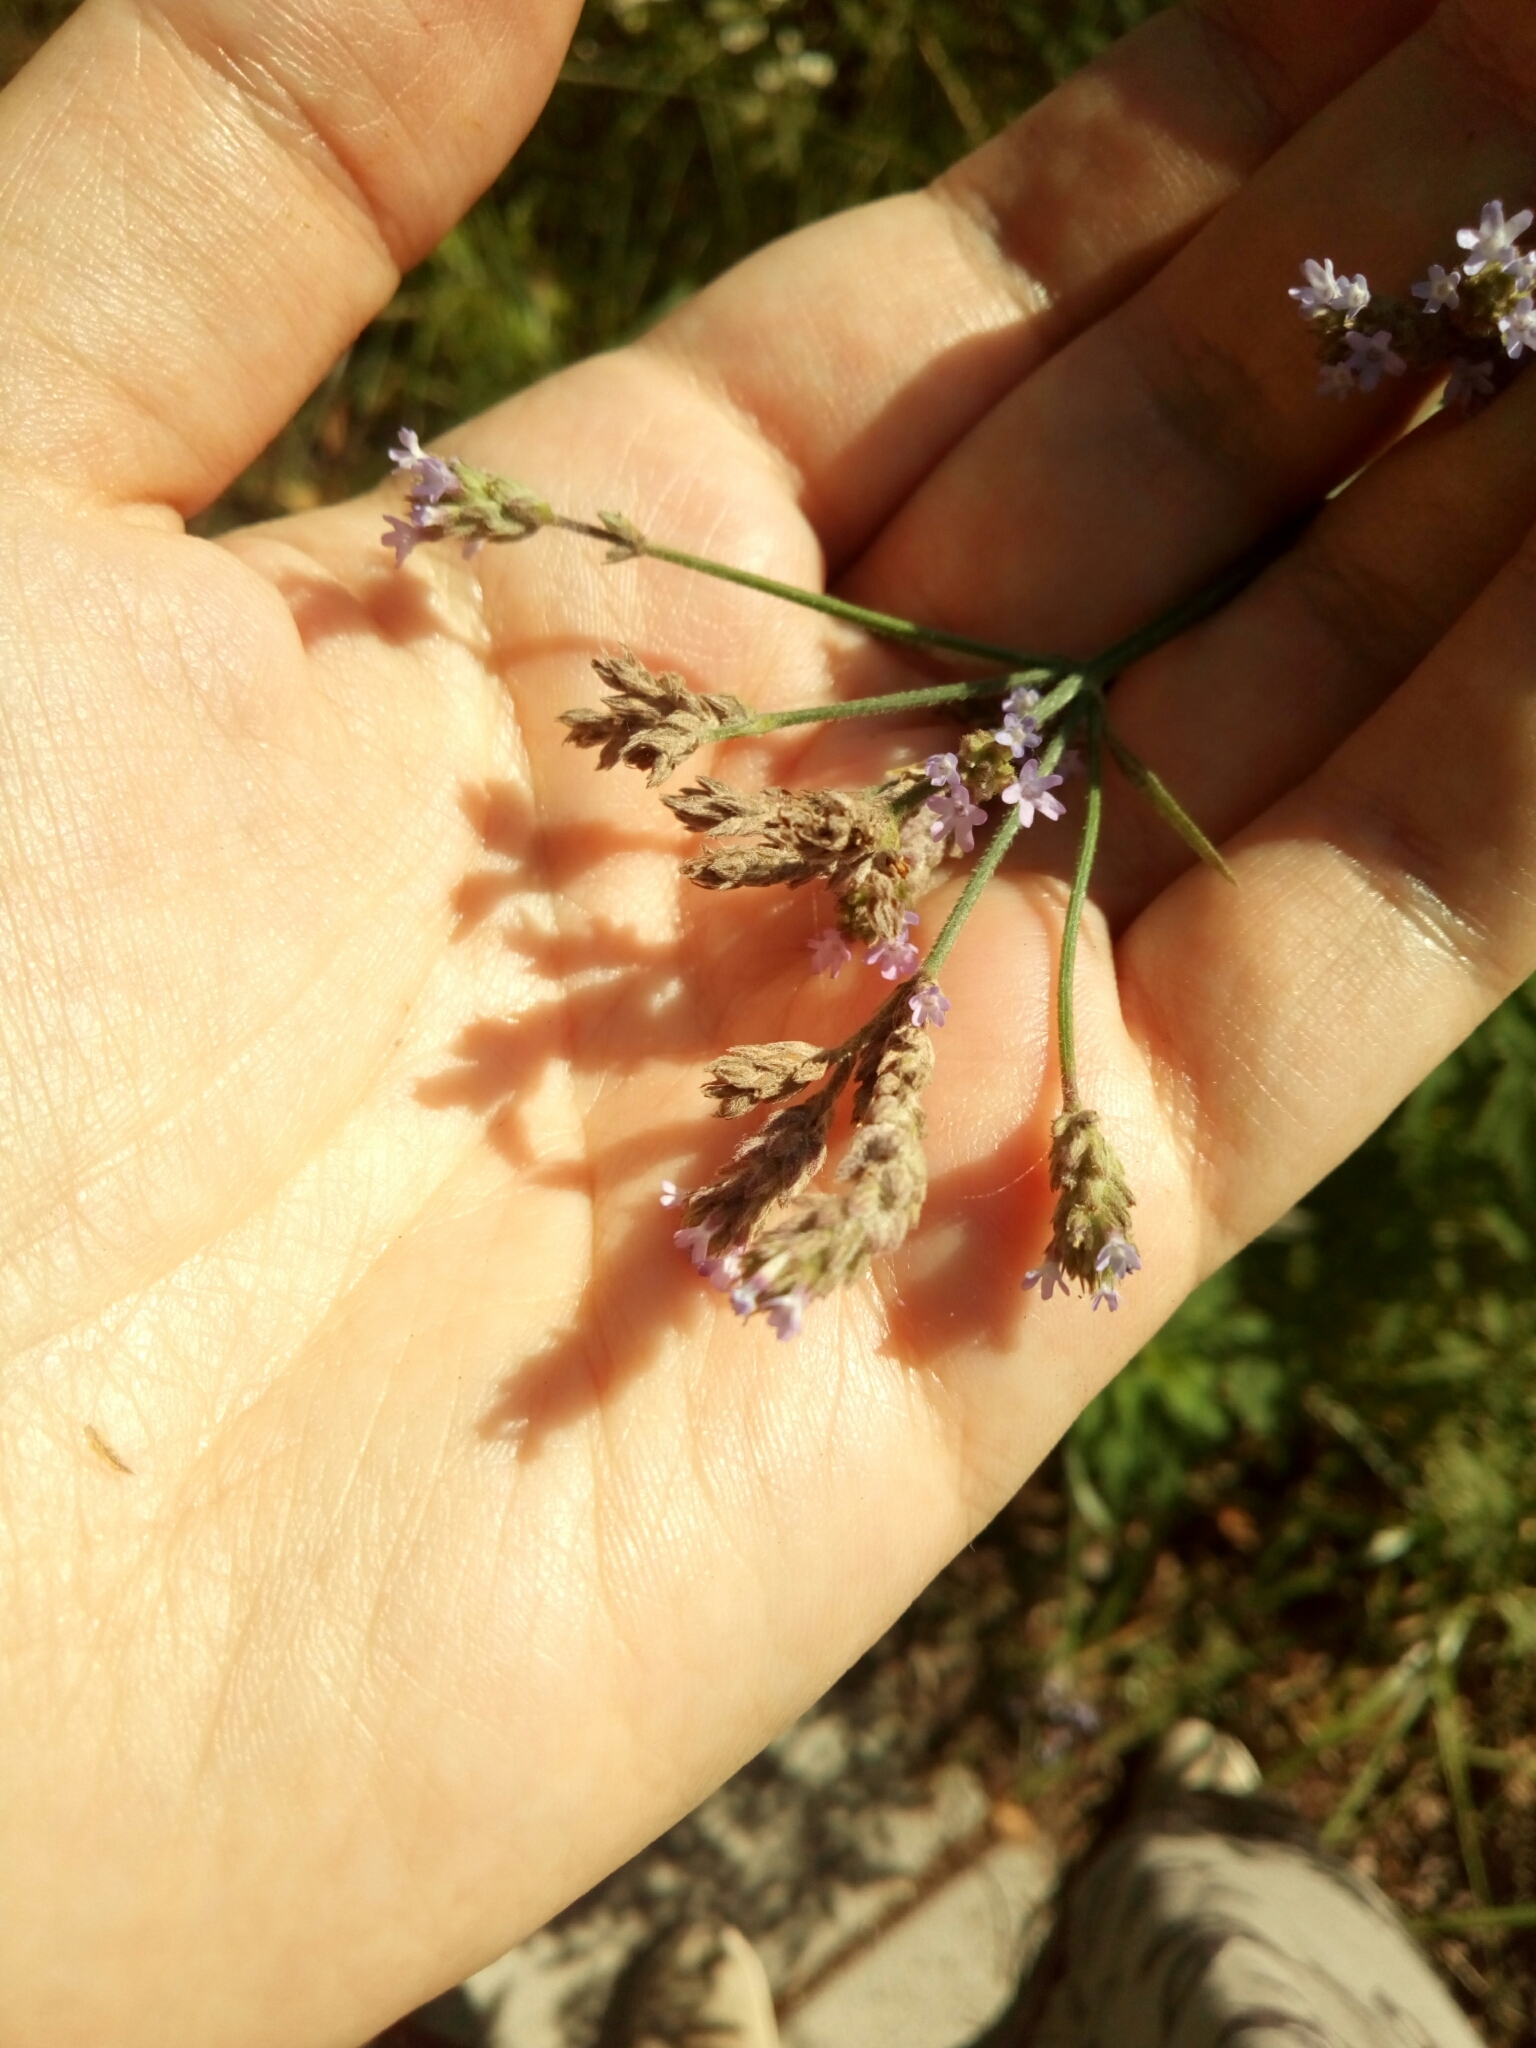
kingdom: Plantae
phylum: Tracheophyta
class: Magnoliopsida
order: Lamiales
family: Verbenaceae
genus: Verbena
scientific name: Verbena brasiliensis
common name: Brazilian vervain
